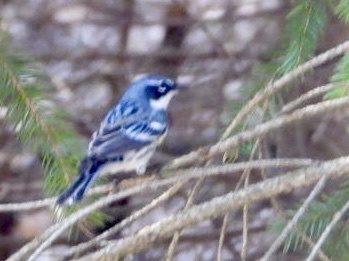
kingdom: Animalia
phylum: Chordata
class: Aves
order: Passeriformes
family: Parulidae
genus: Setophaga
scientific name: Setophaga coronata
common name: Myrtle warbler
